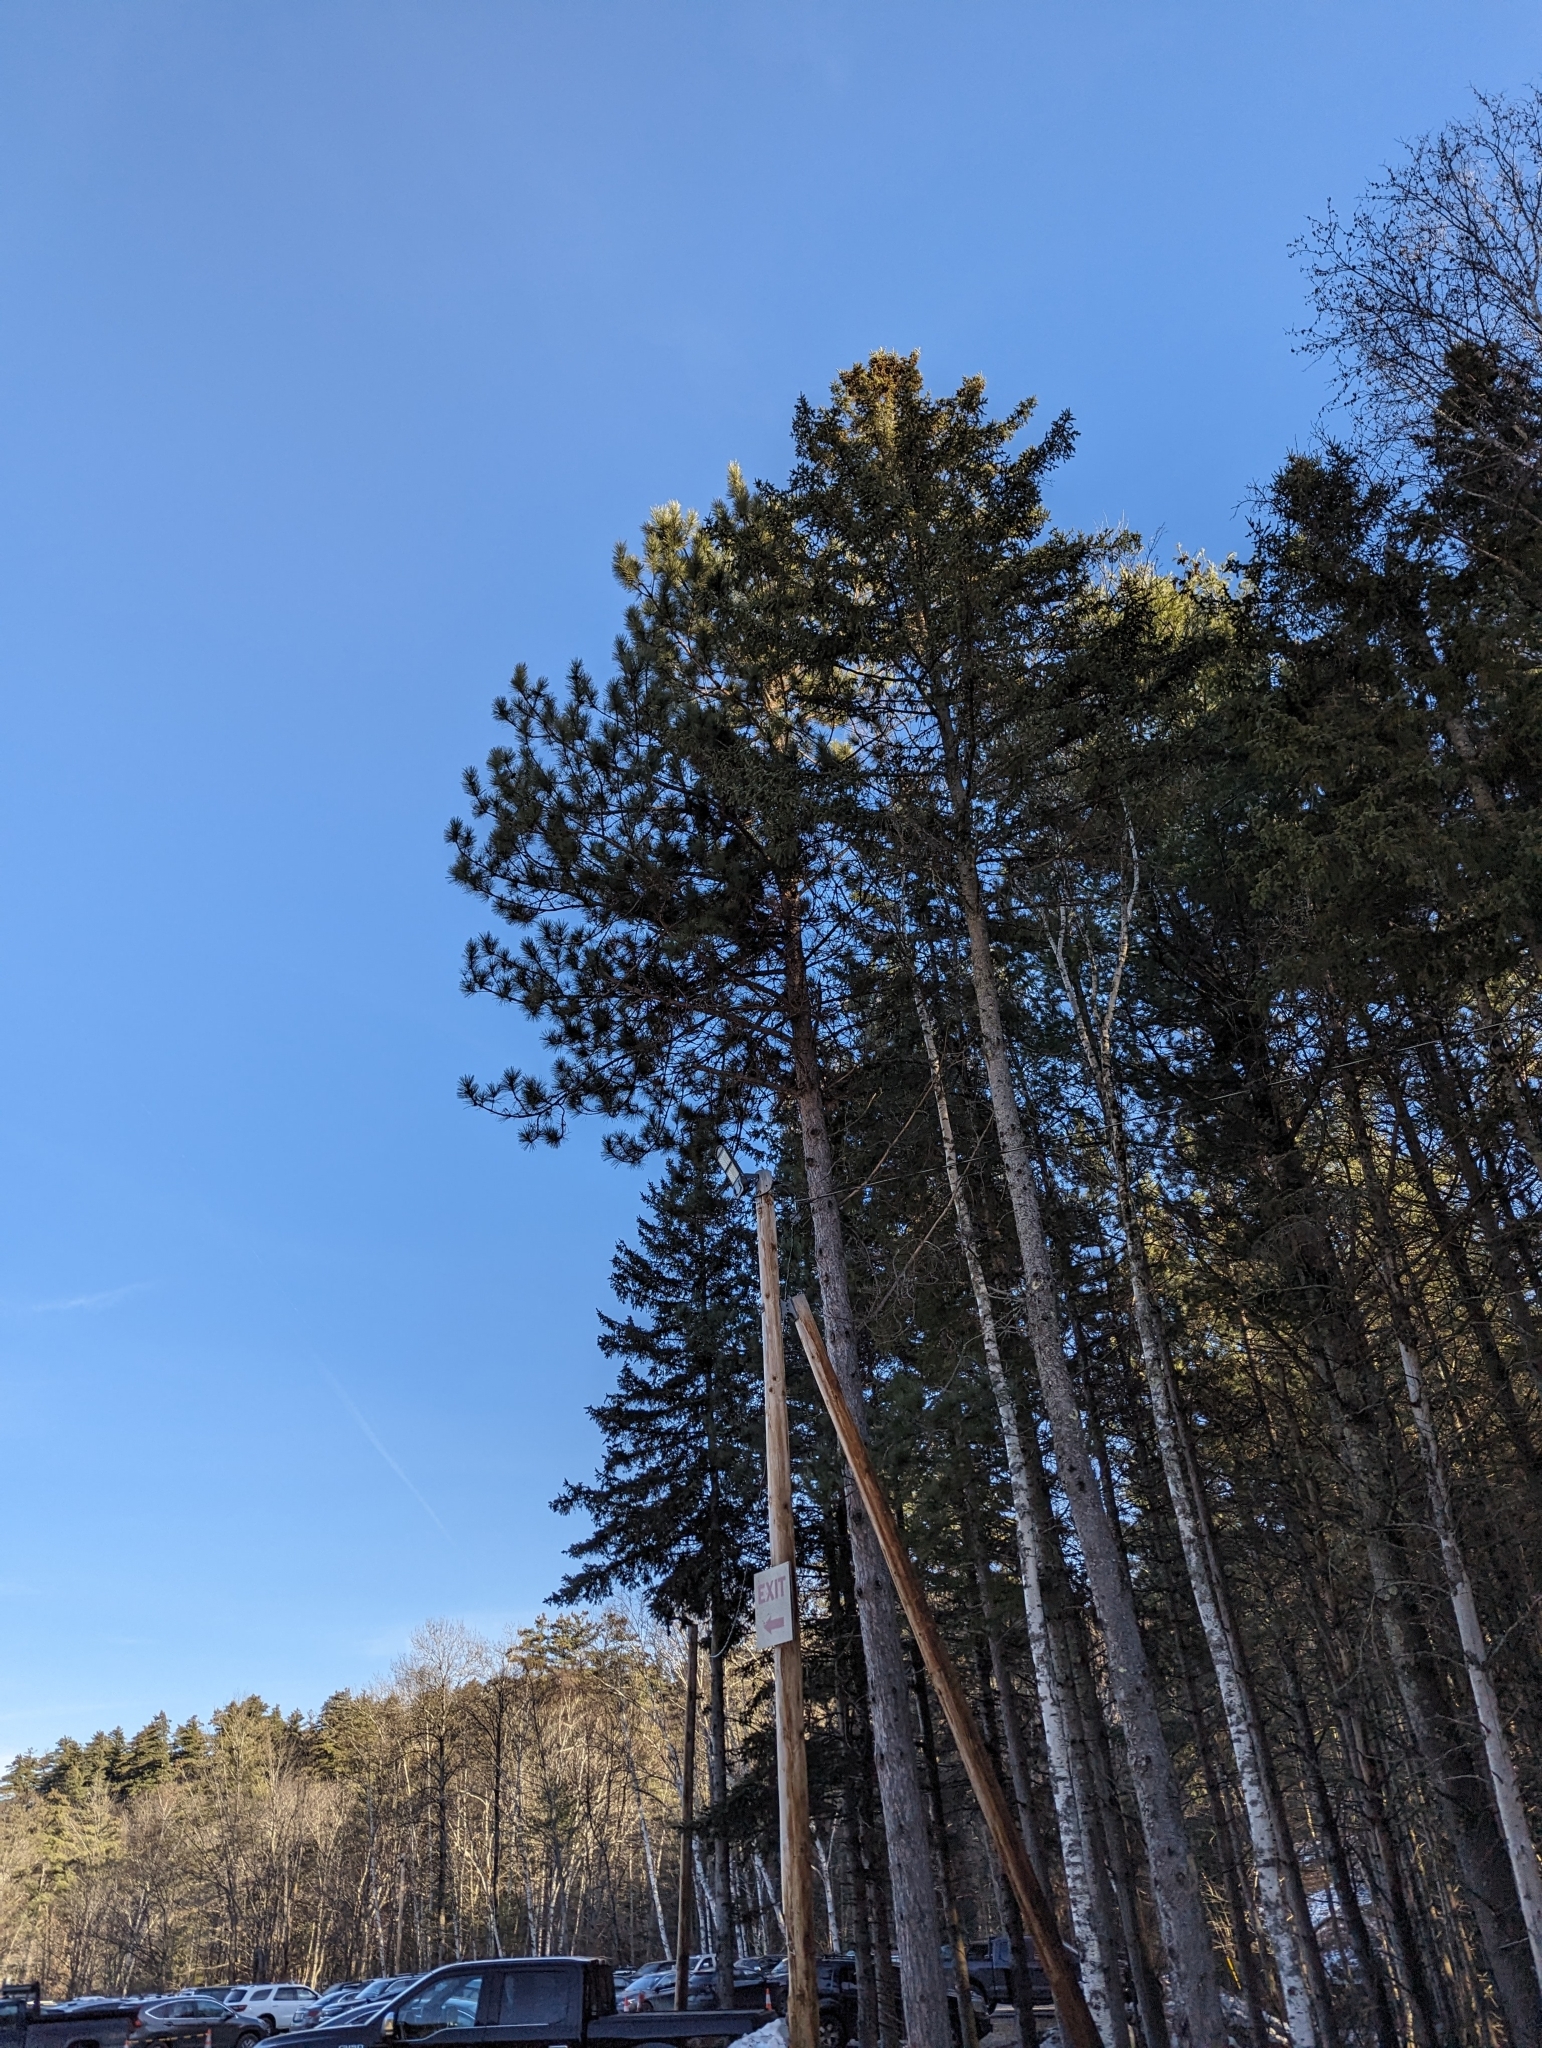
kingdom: Plantae
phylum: Tracheophyta
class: Pinopsida
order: Pinales
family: Pinaceae
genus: Pinus
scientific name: Pinus resinosa
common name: Norway pine
